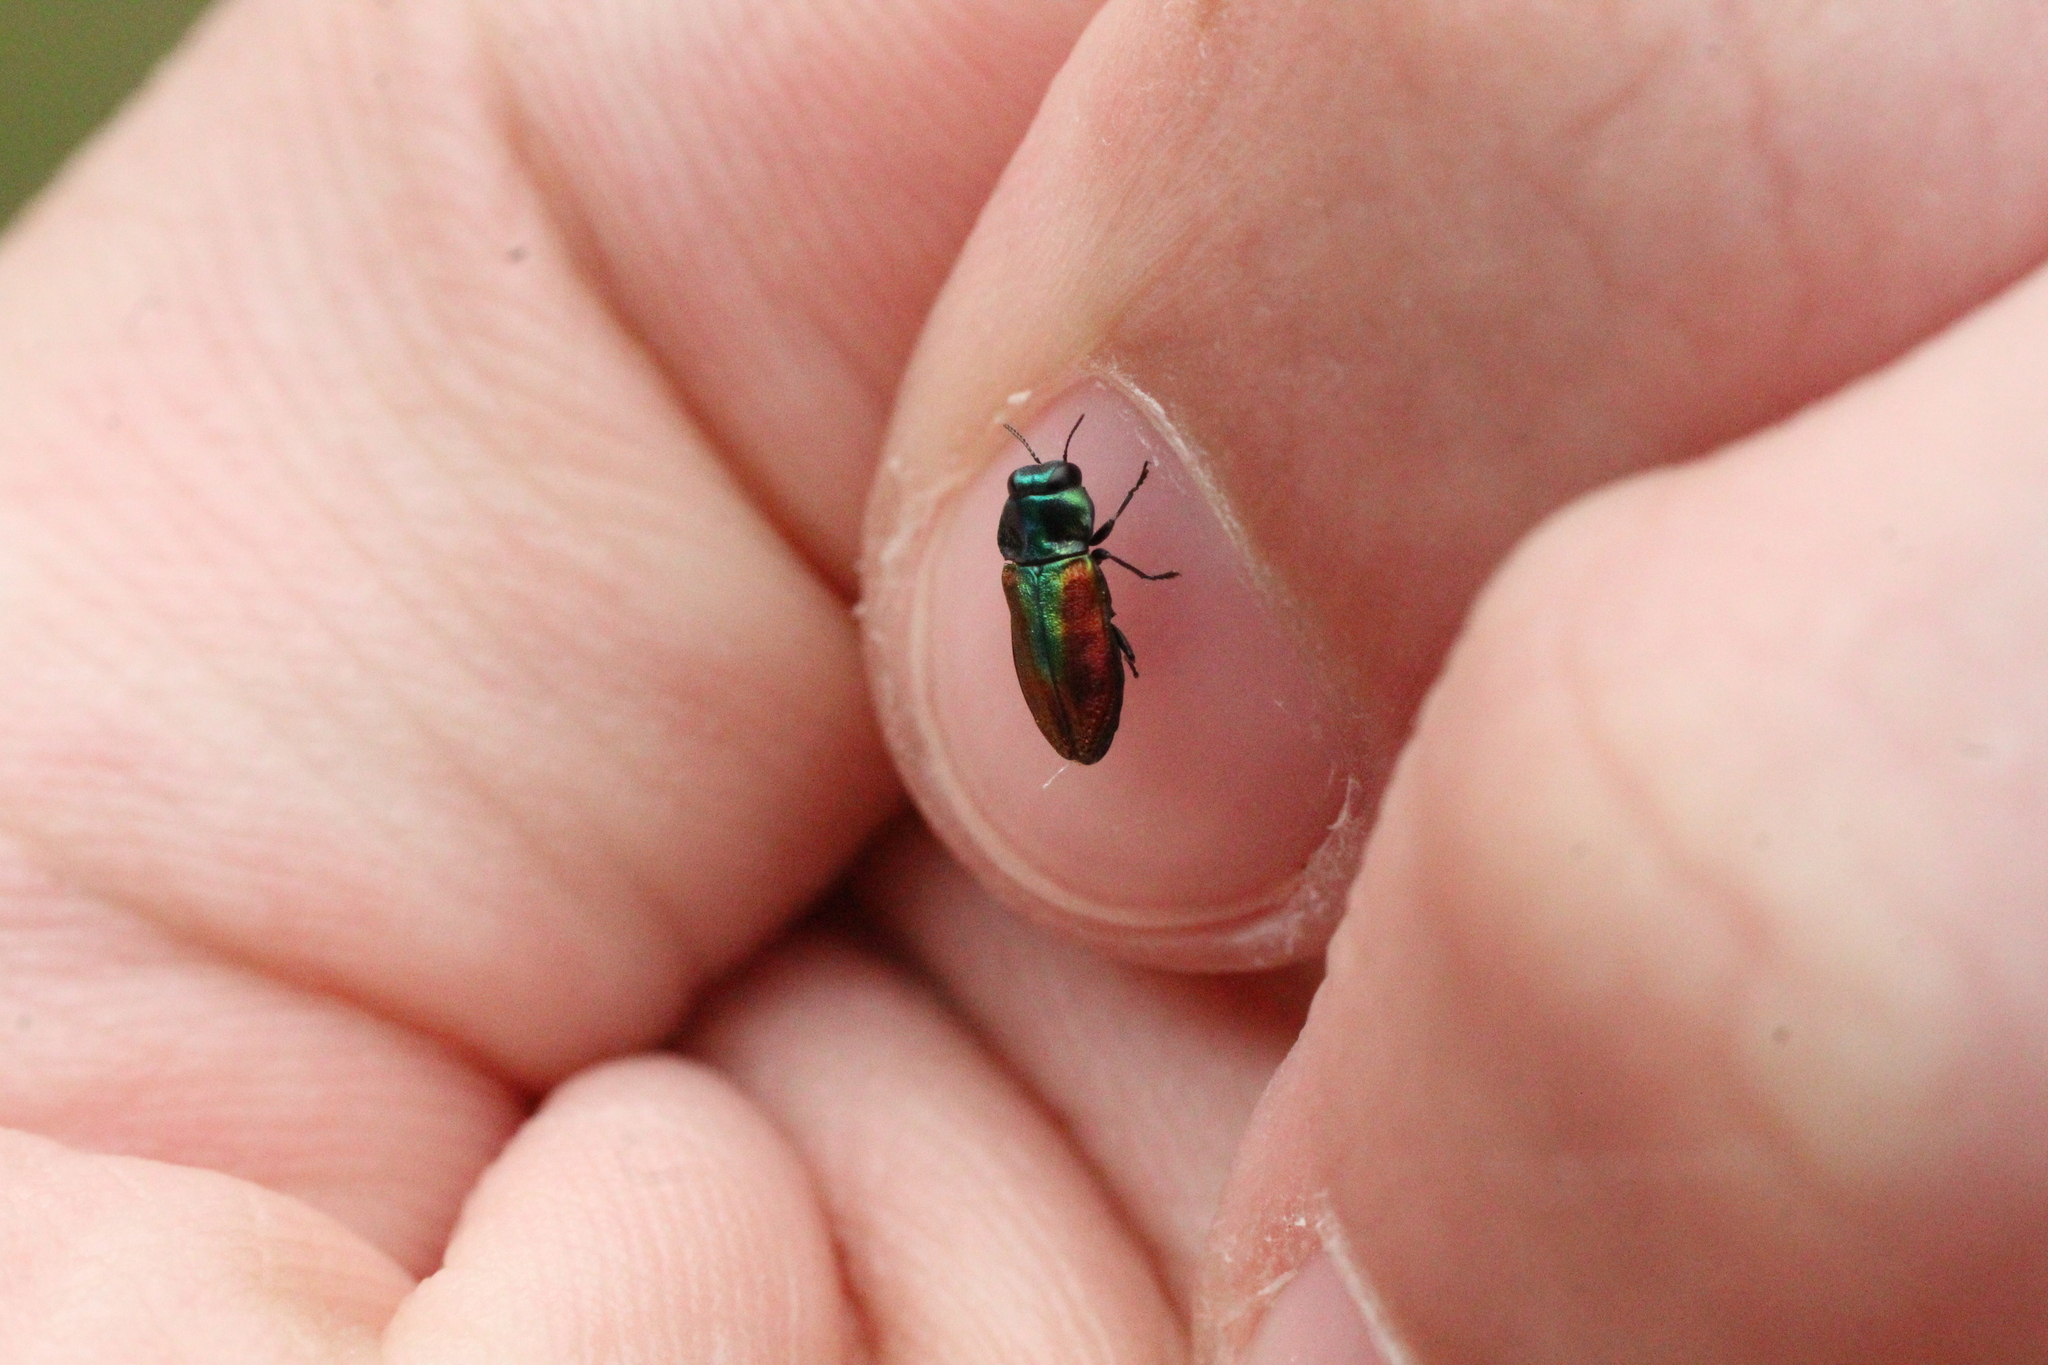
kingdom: Animalia
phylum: Arthropoda
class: Insecta
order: Coleoptera
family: Buprestidae
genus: Anthaxia
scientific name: Anthaxia fulgurans
